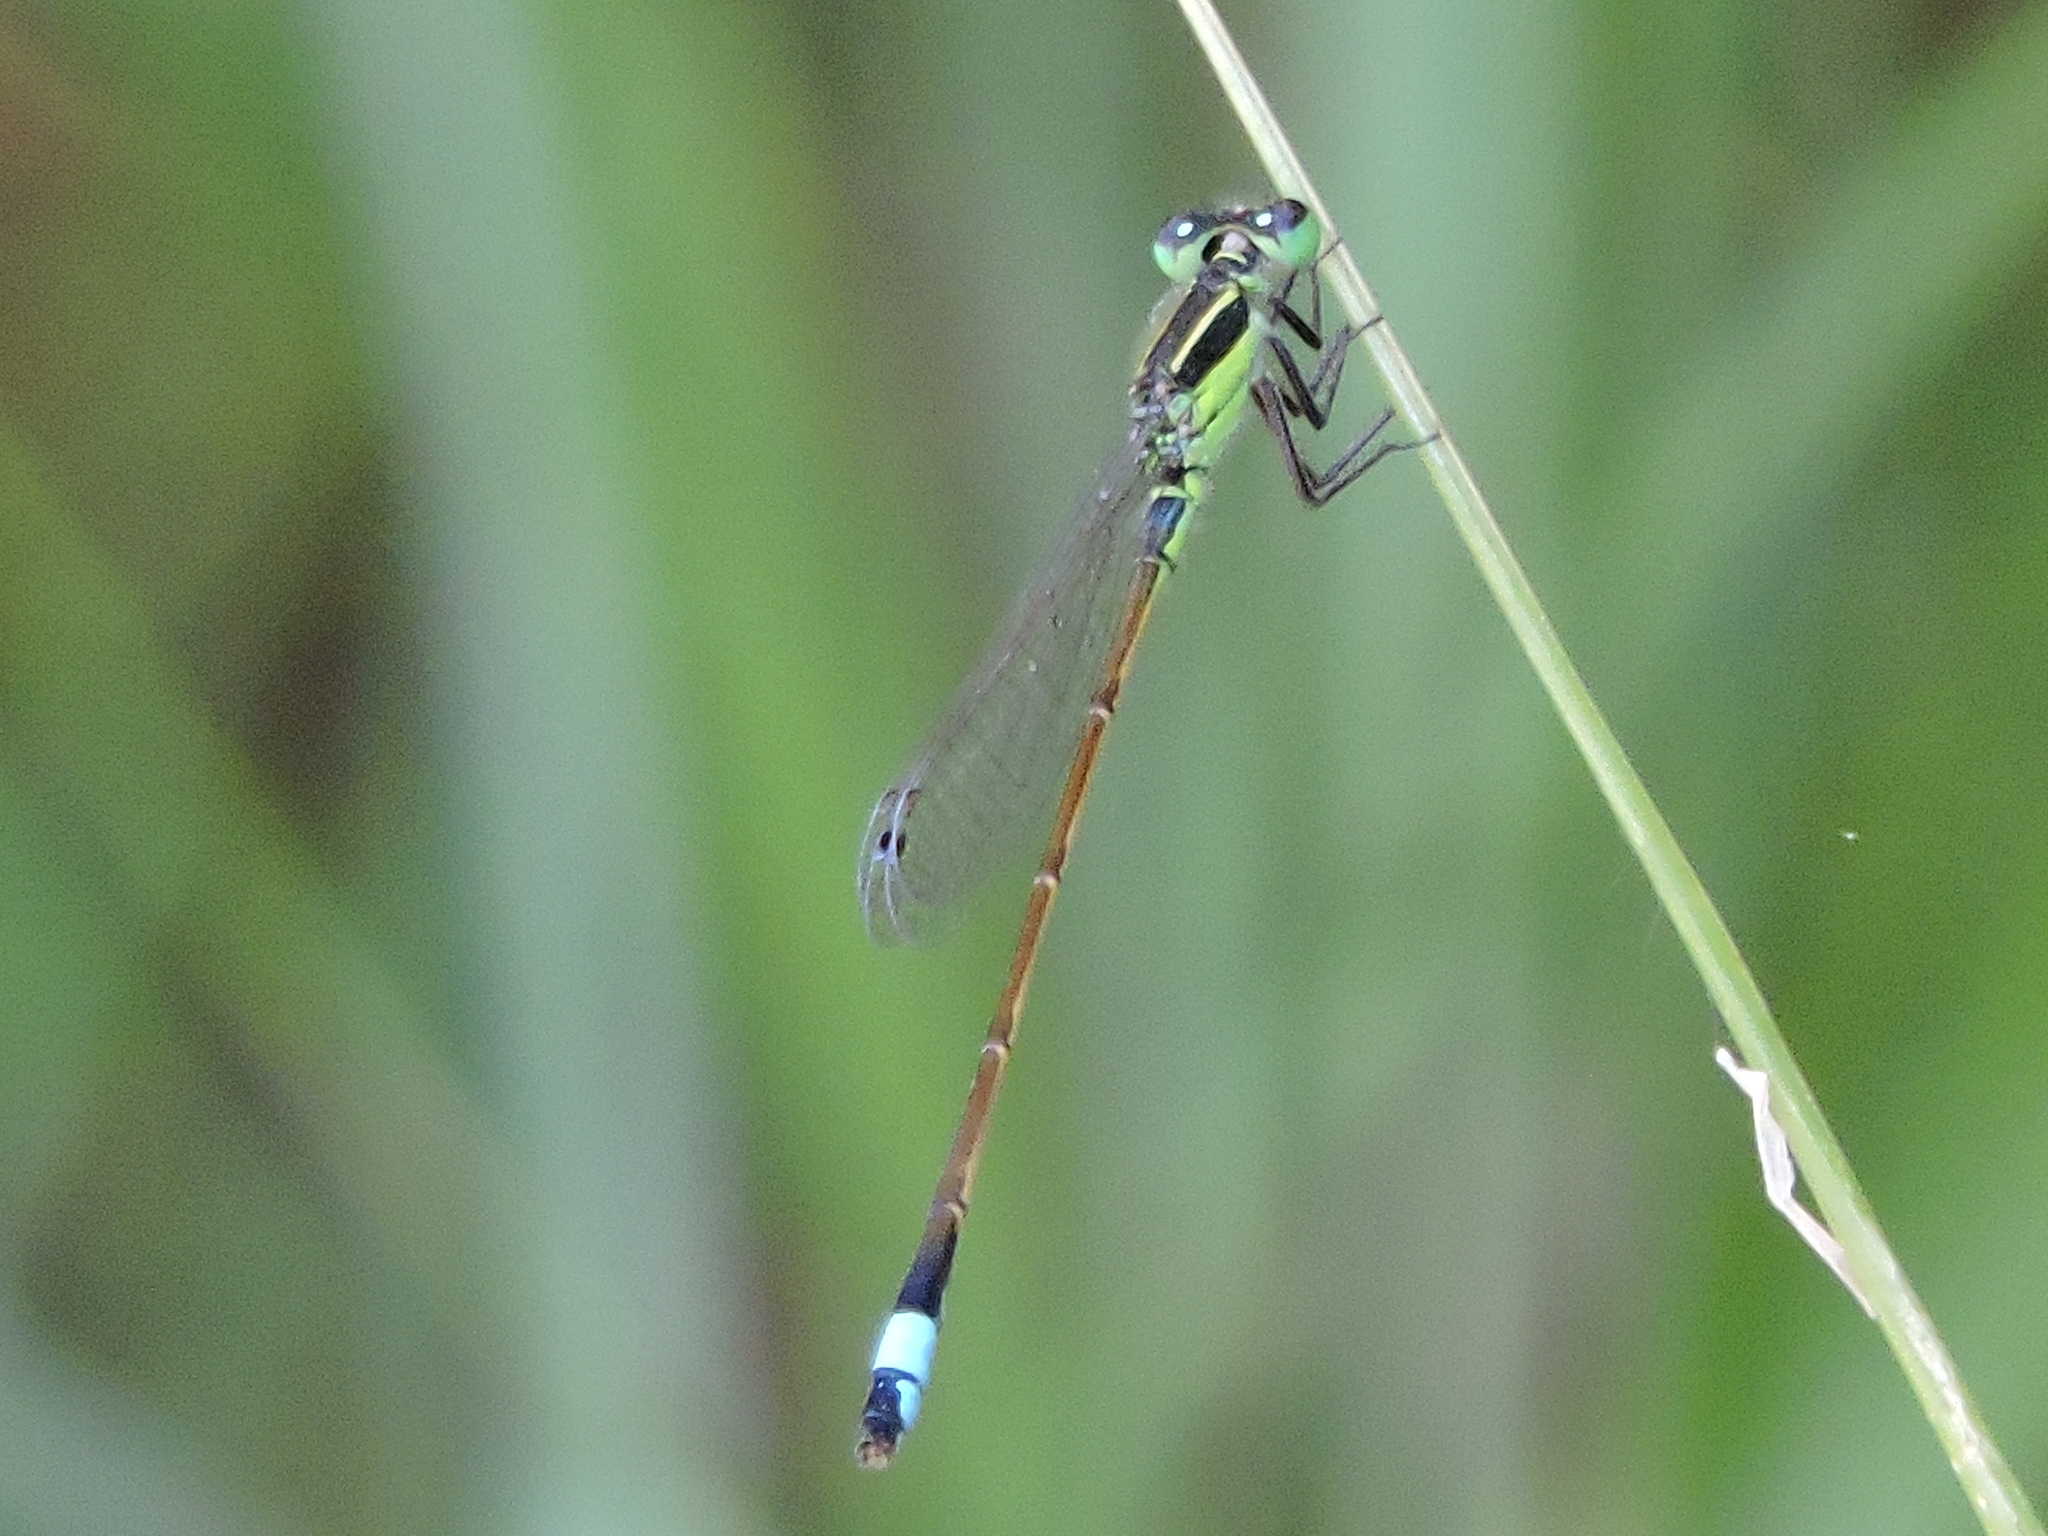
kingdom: Animalia
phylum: Arthropoda
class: Insecta
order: Odonata
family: Coenagrionidae
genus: Ischnura
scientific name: Ischnura ramburii
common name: Rambur's forktail
